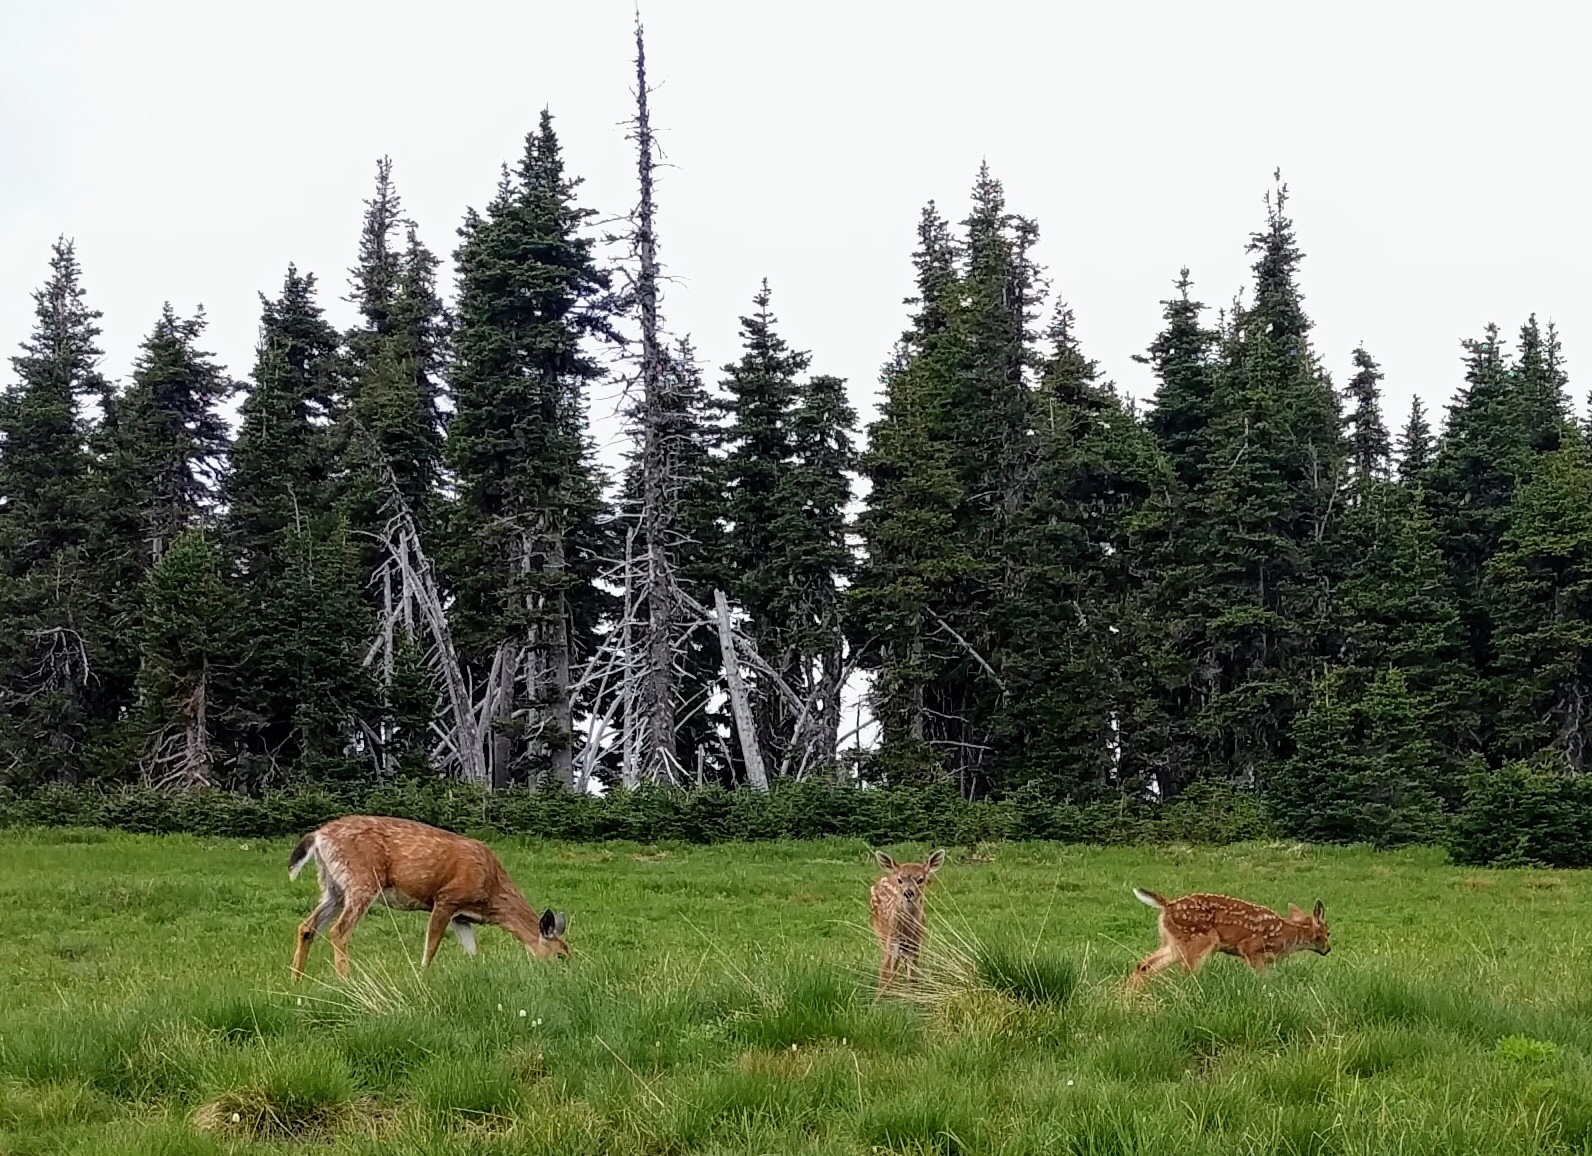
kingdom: Animalia
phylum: Chordata
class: Mammalia
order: Artiodactyla
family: Cervidae
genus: Odocoileus
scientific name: Odocoileus hemionus
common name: Mule deer
